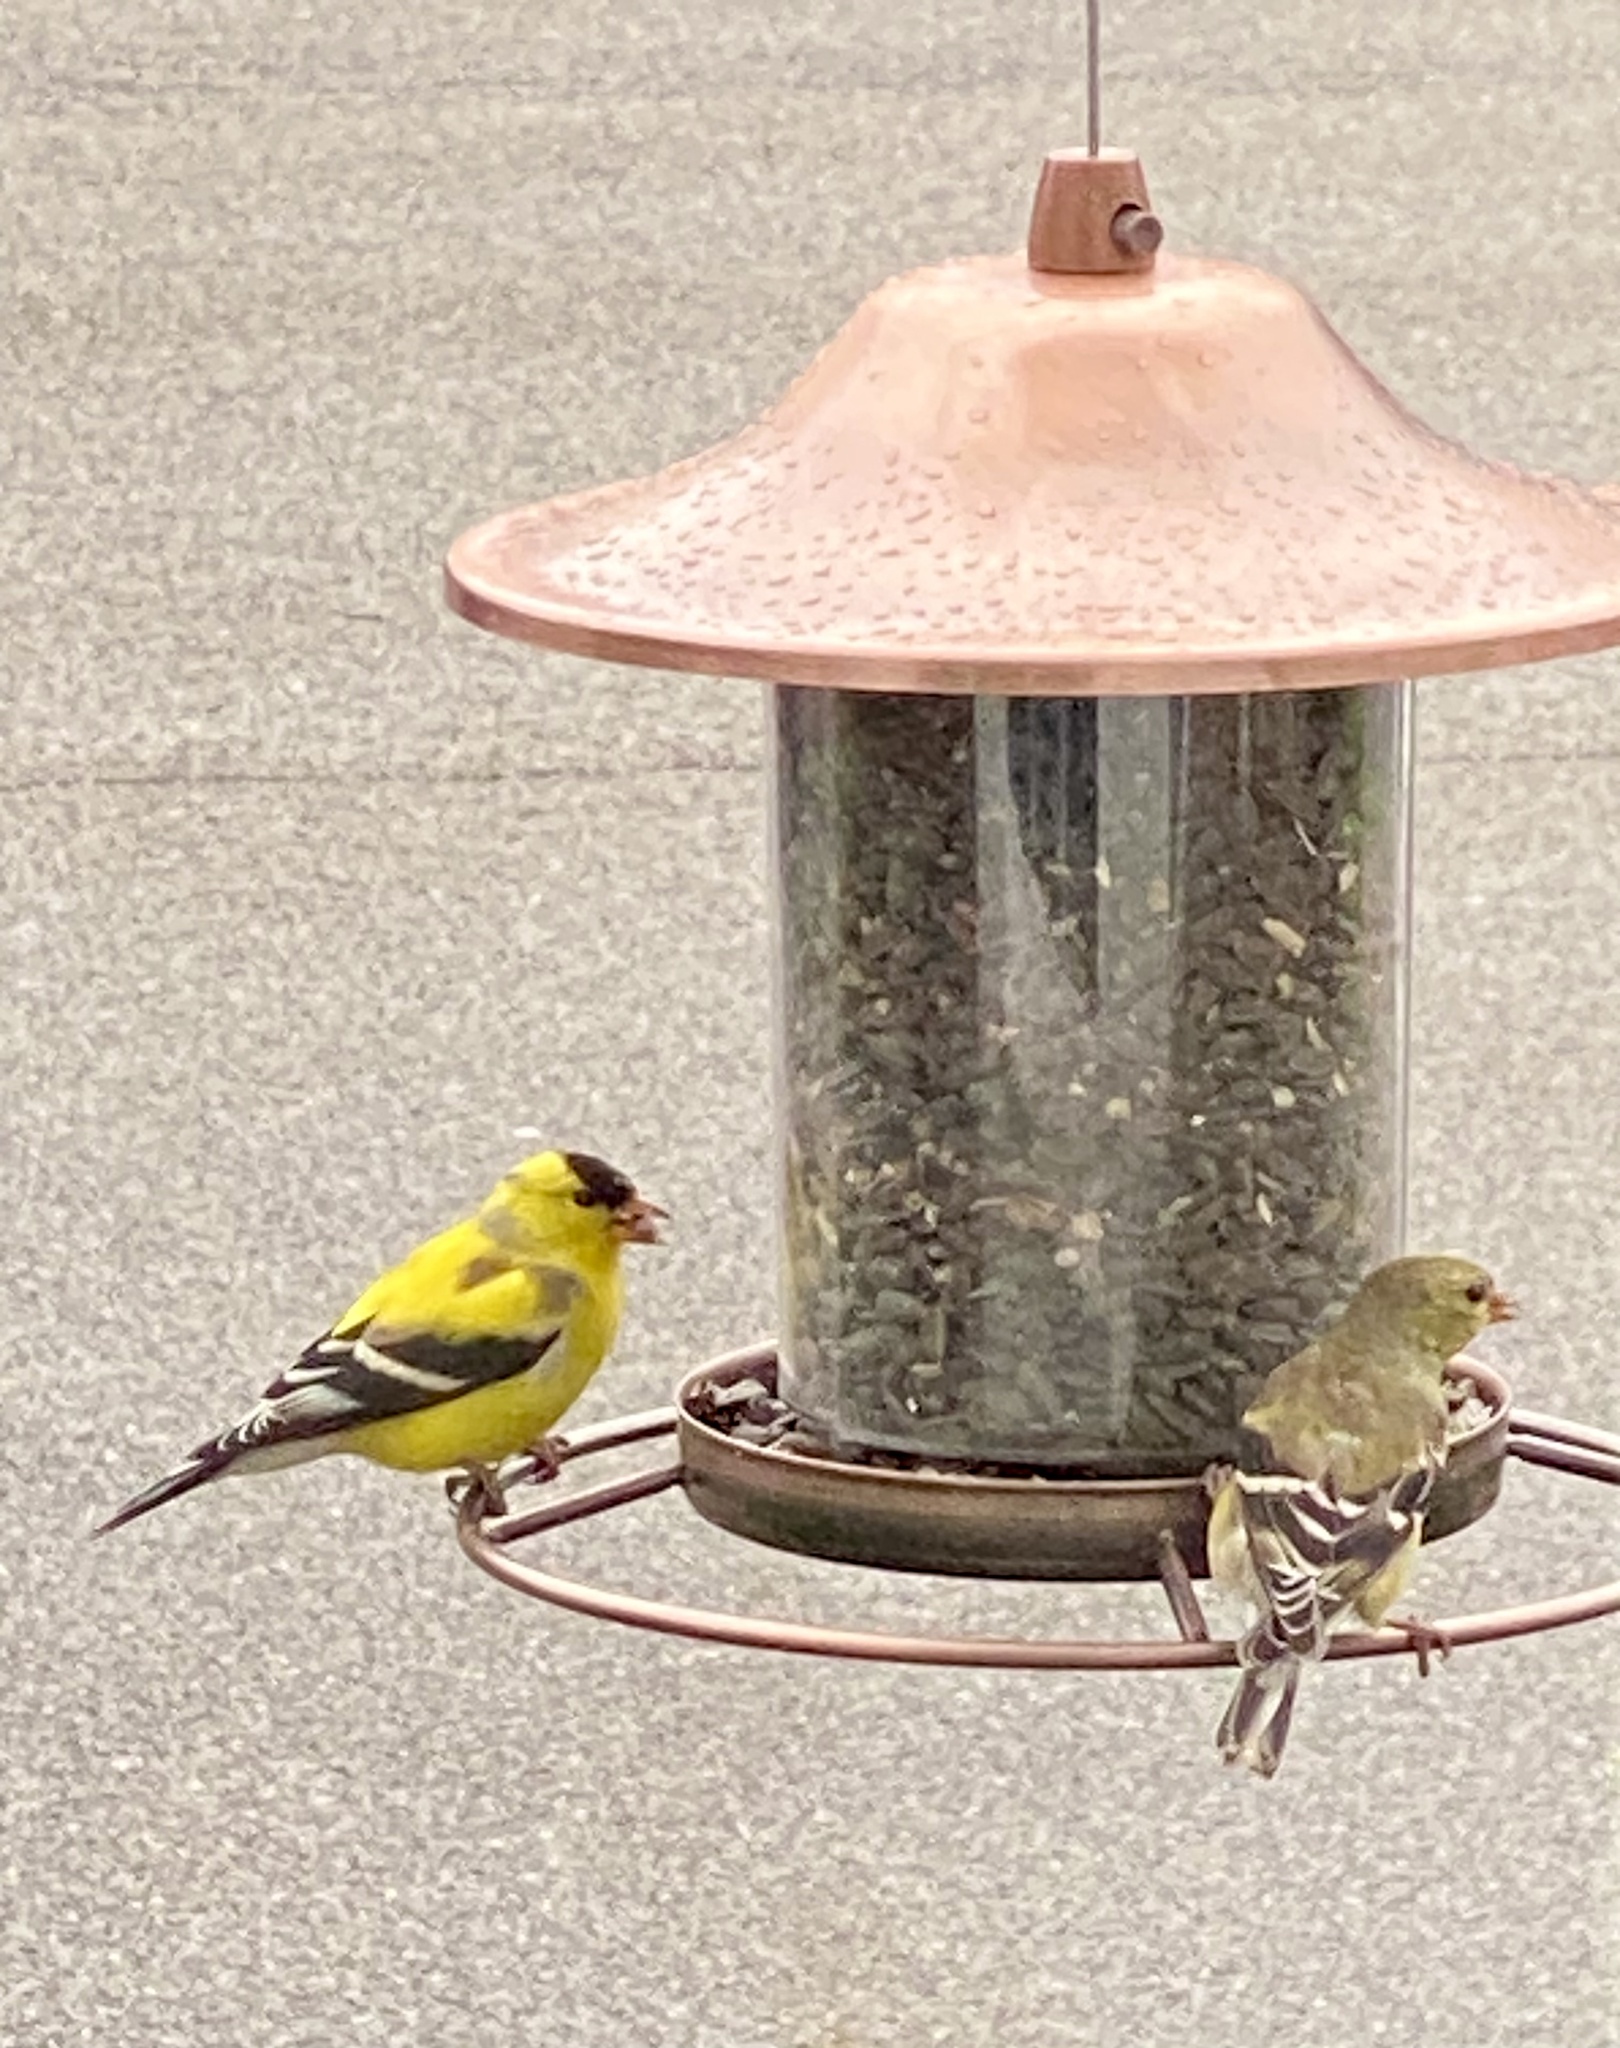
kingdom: Animalia
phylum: Chordata
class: Aves
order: Passeriformes
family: Fringillidae
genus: Spinus
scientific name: Spinus tristis
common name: American goldfinch
